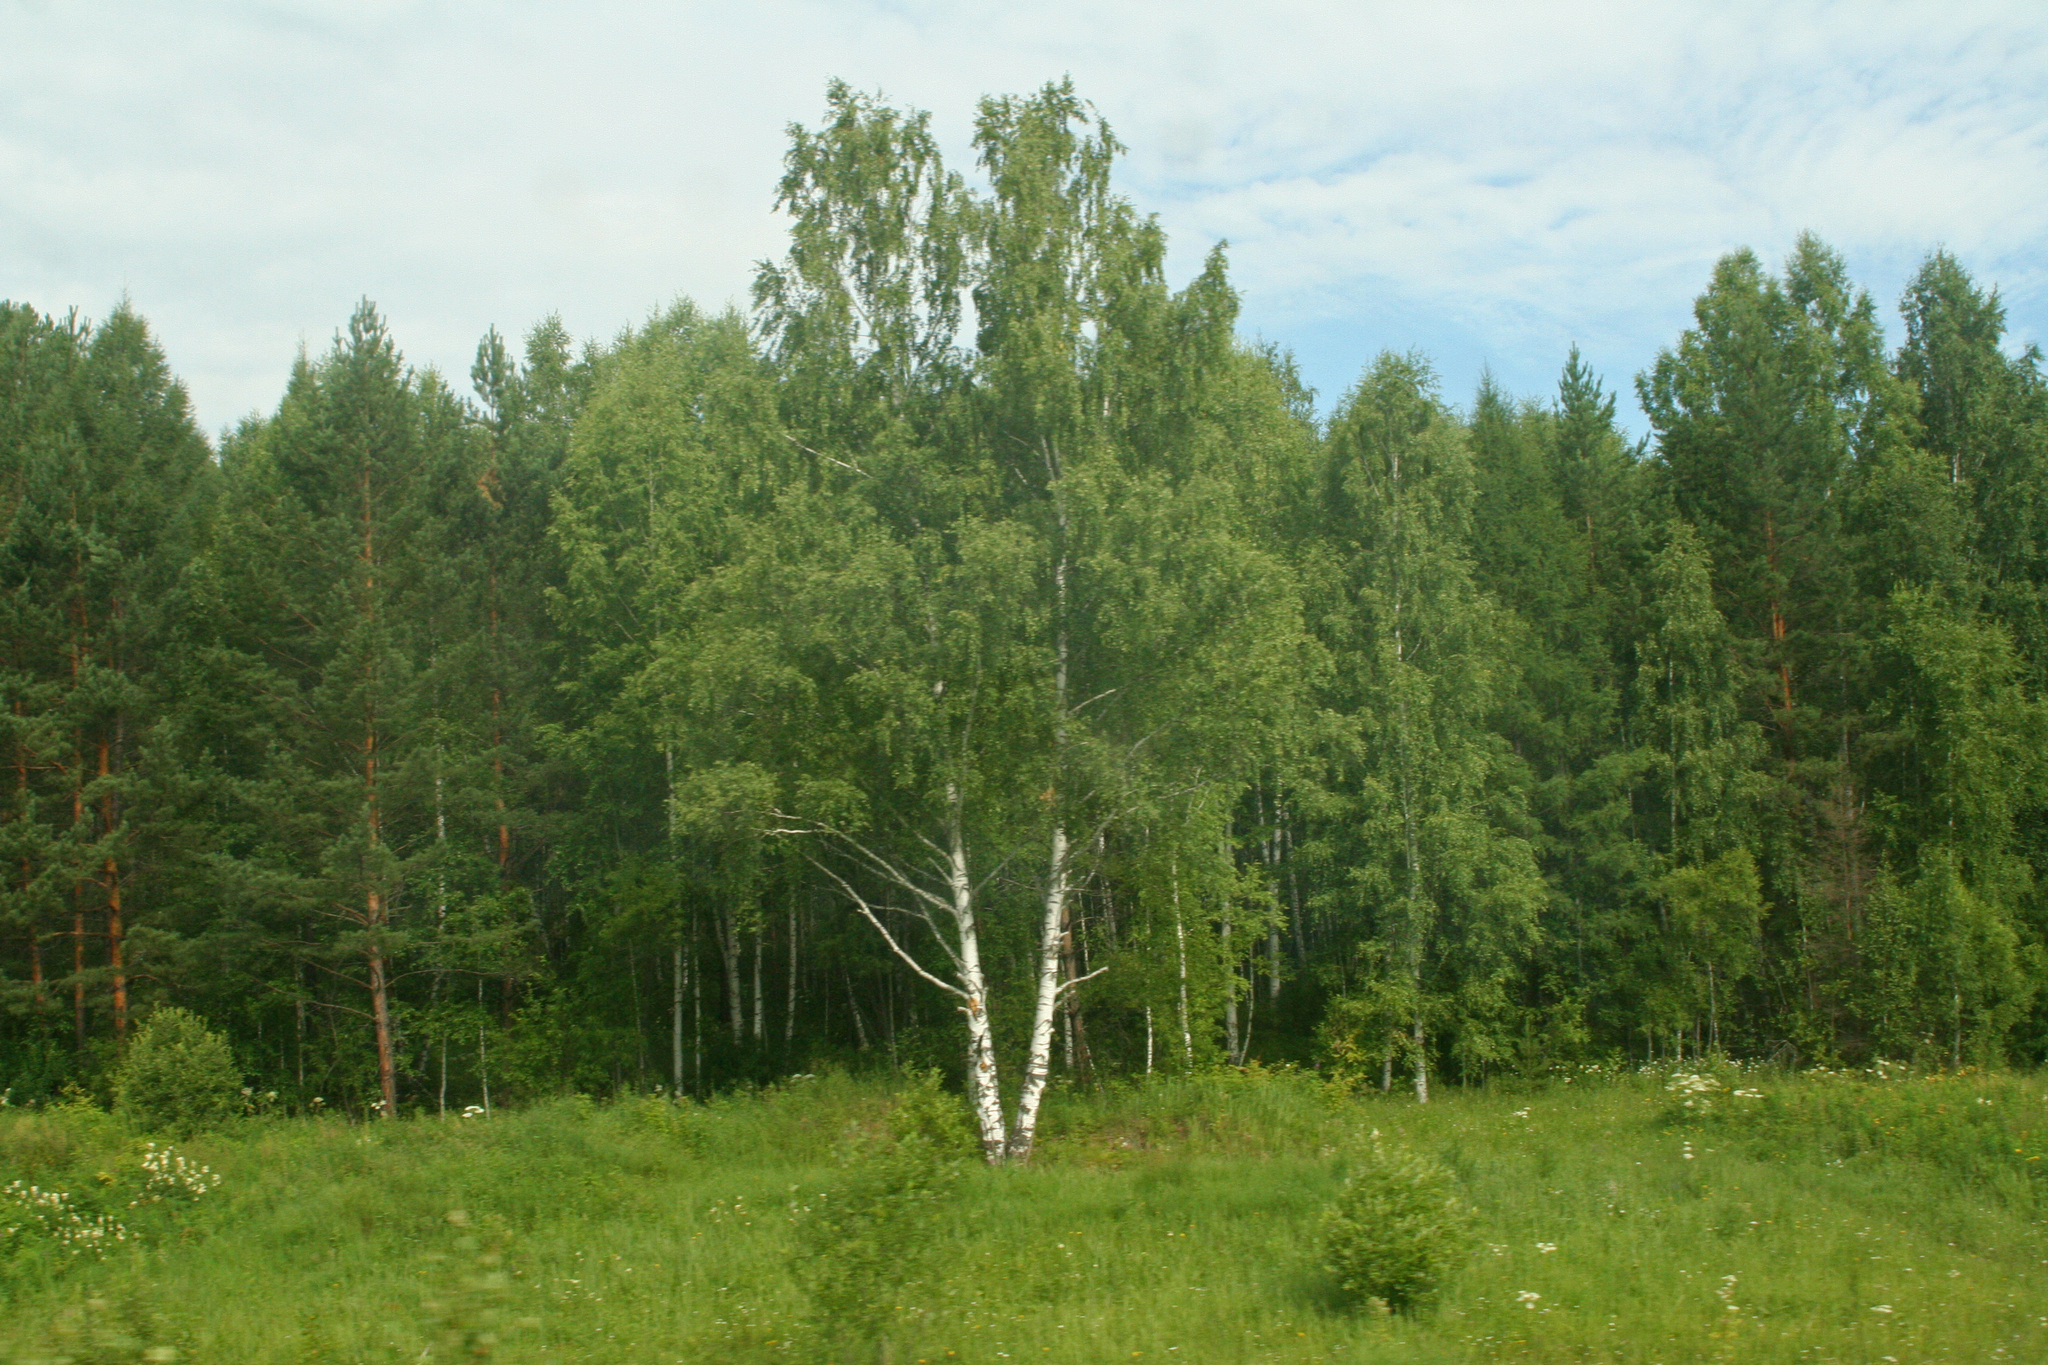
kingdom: Plantae
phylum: Tracheophyta
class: Magnoliopsida
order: Fagales
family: Betulaceae
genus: Betula
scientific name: Betula pendula
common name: Silver birch
